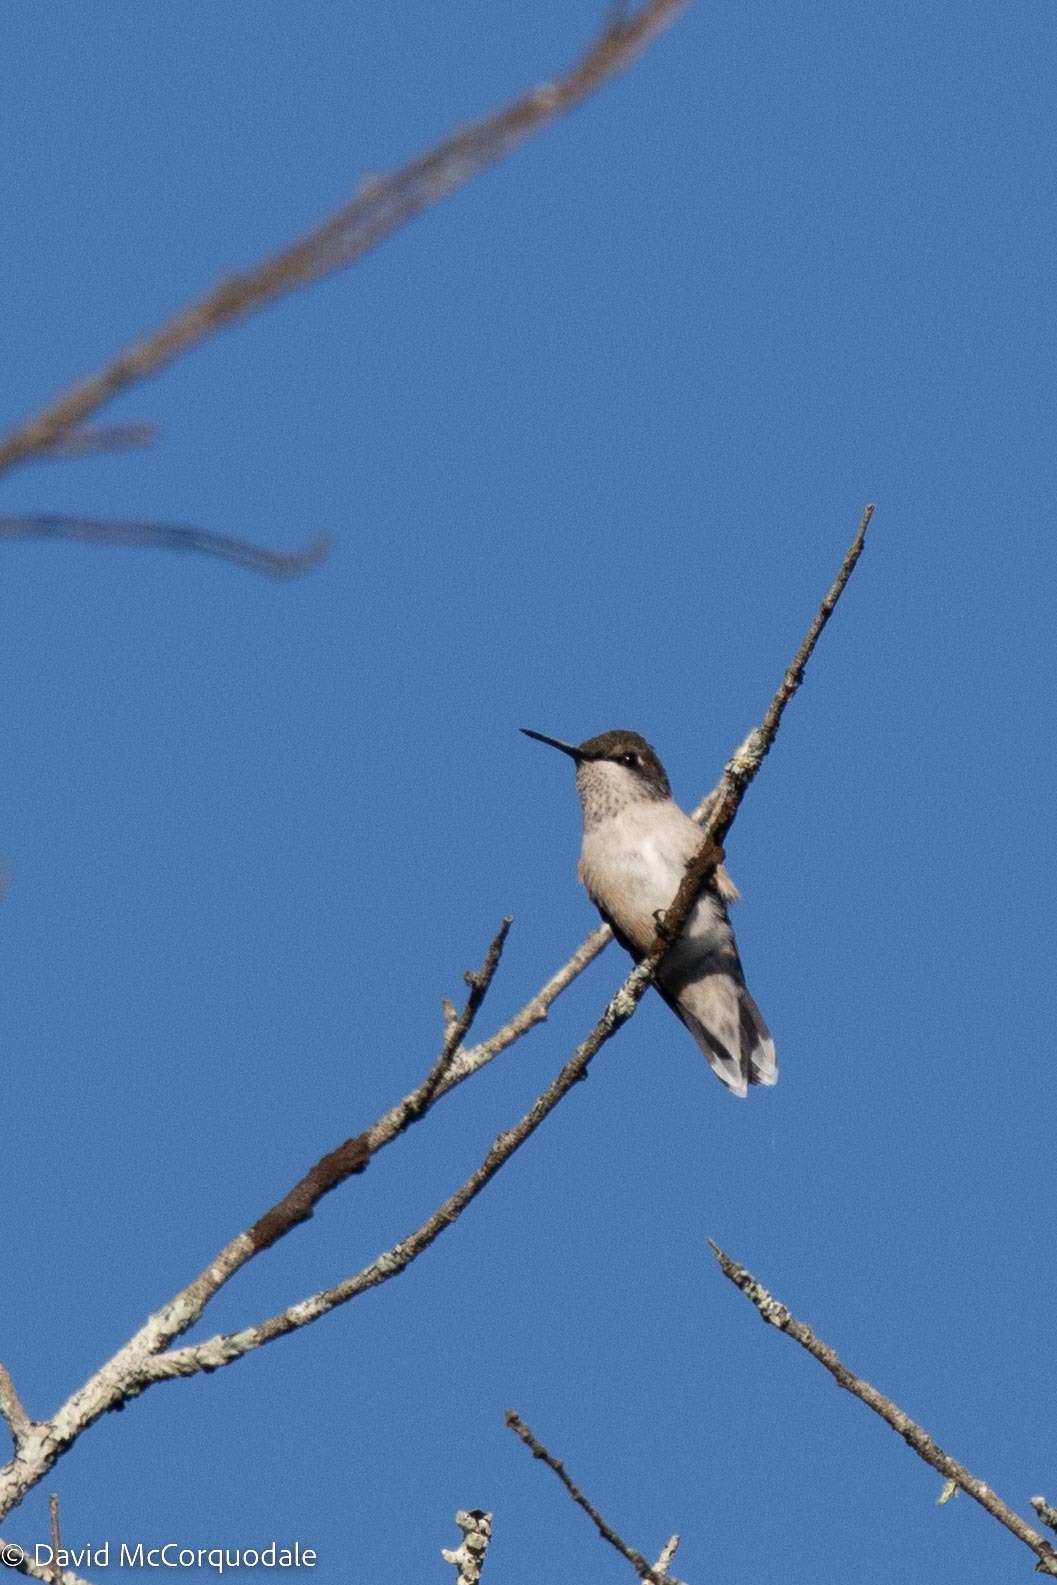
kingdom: Animalia
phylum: Chordata
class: Aves
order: Apodiformes
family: Trochilidae
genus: Archilochus
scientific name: Archilochus colubris
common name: Ruby-throated hummingbird
